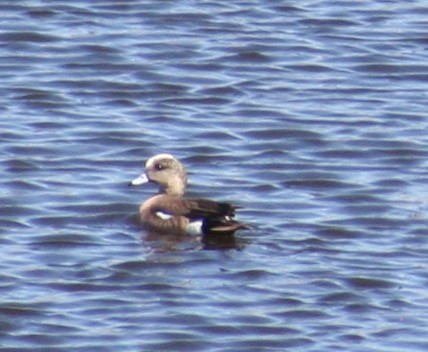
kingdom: Animalia
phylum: Chordata
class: Aves
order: Anseriformes
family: Anatidae
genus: Mareca
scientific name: Mareca americana
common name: American wigeon
